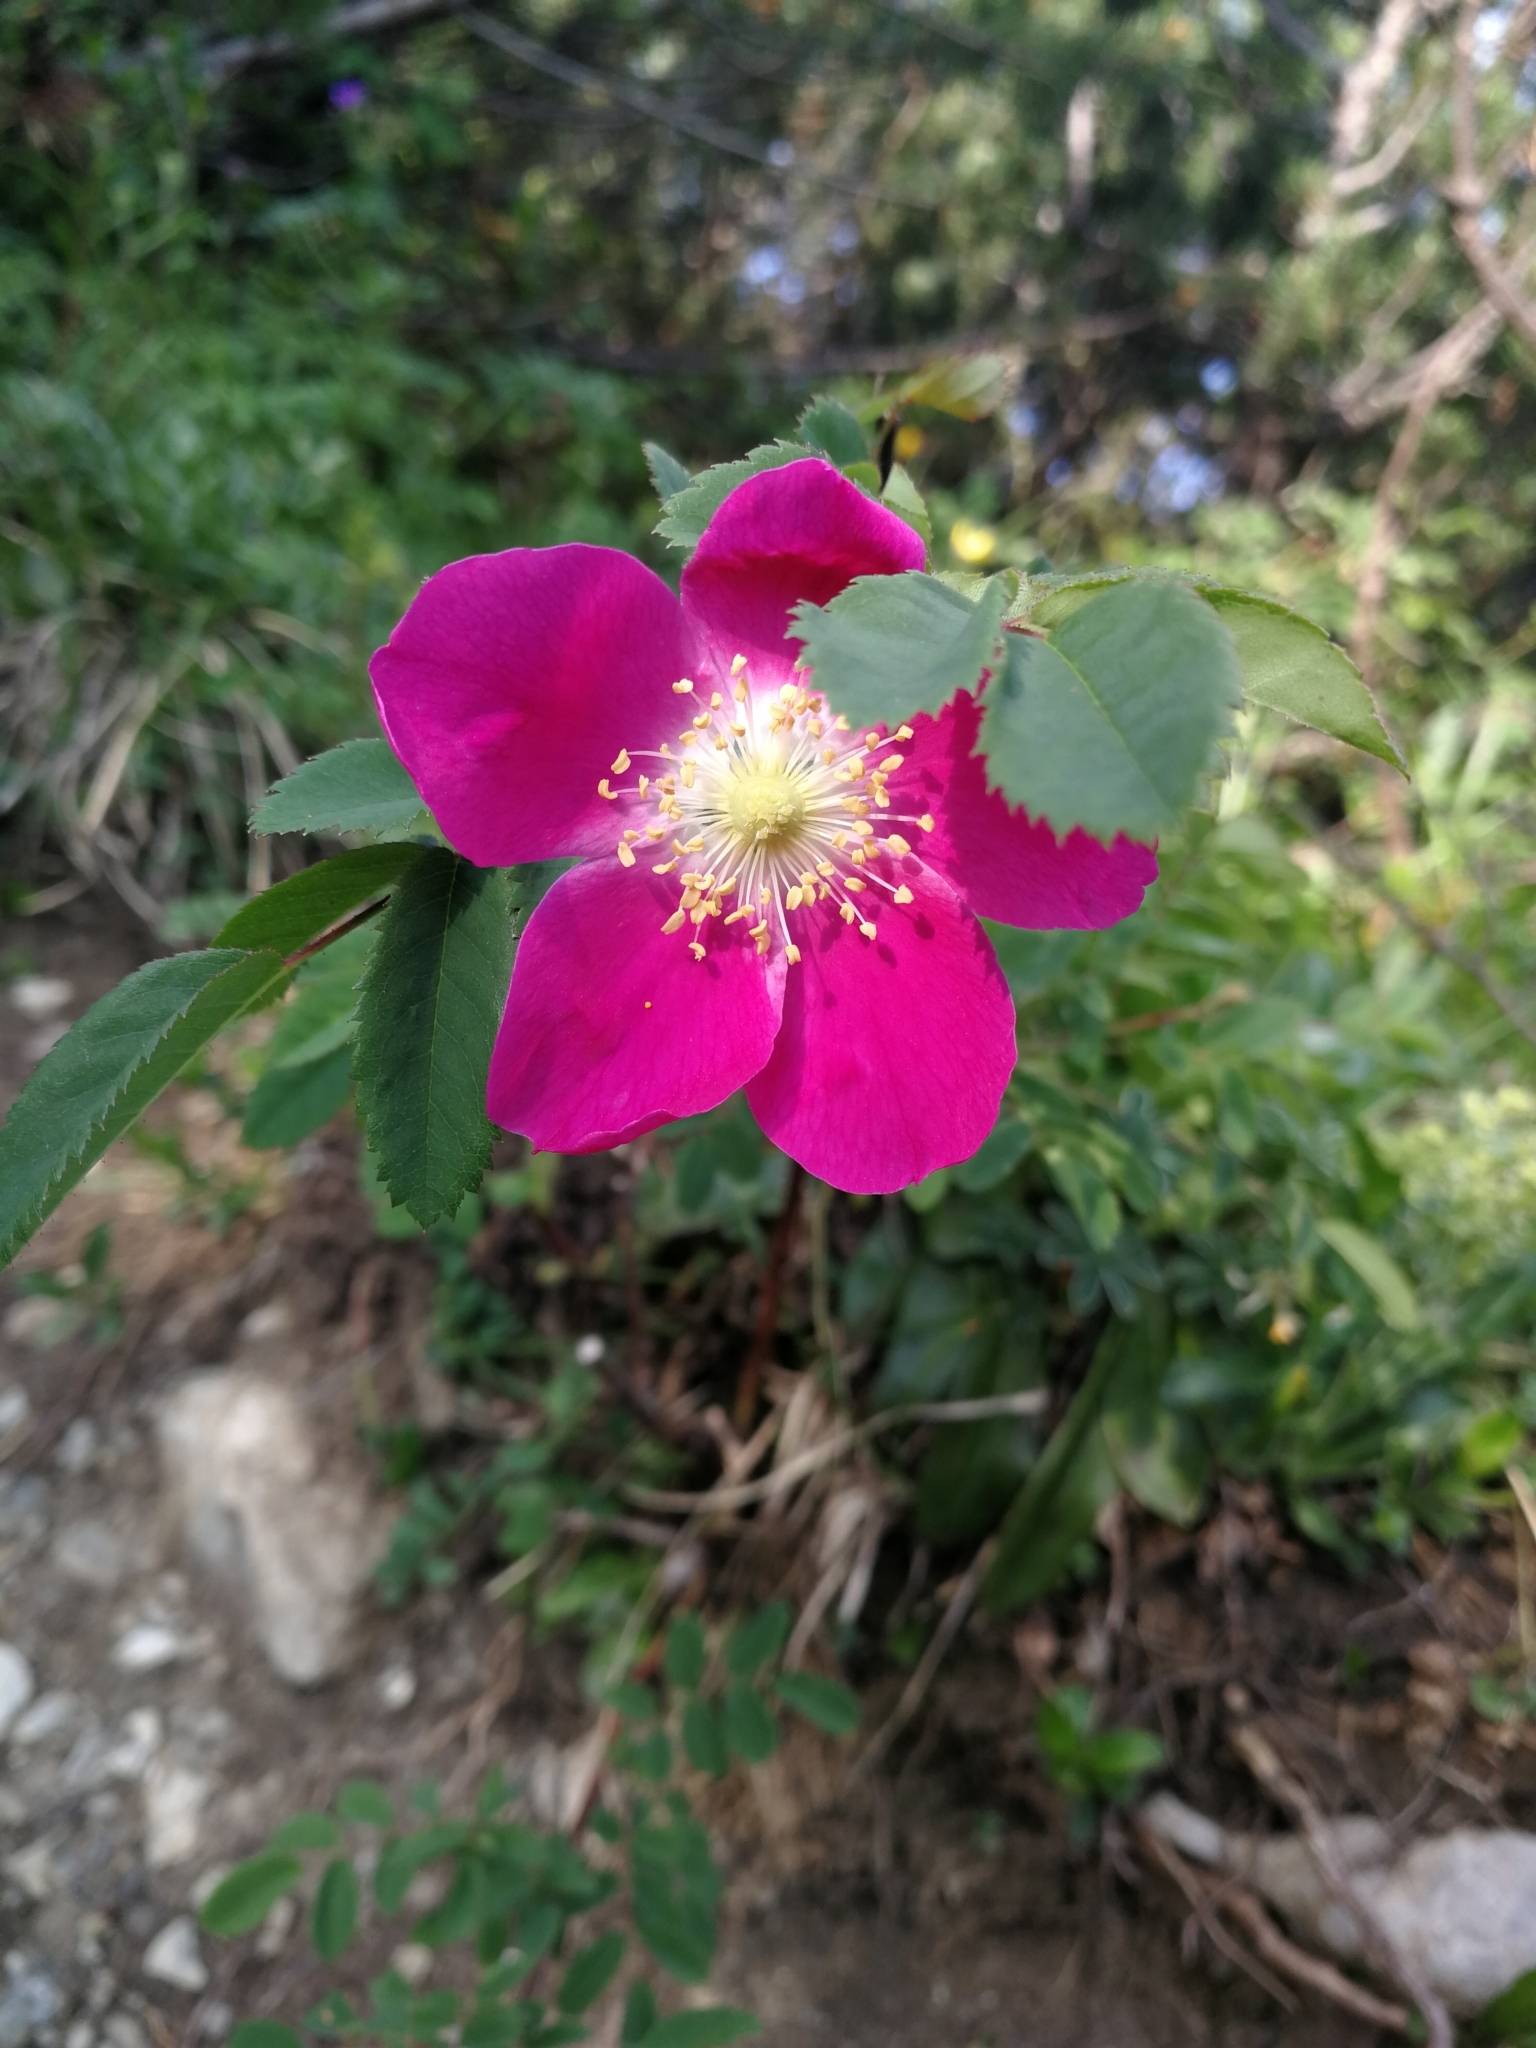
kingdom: Plantae
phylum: Tracheophyta
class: Magnoliopsida
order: Rosales
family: Rosaceae
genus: Rosa
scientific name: Rosa pendulina
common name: Alpine rose
